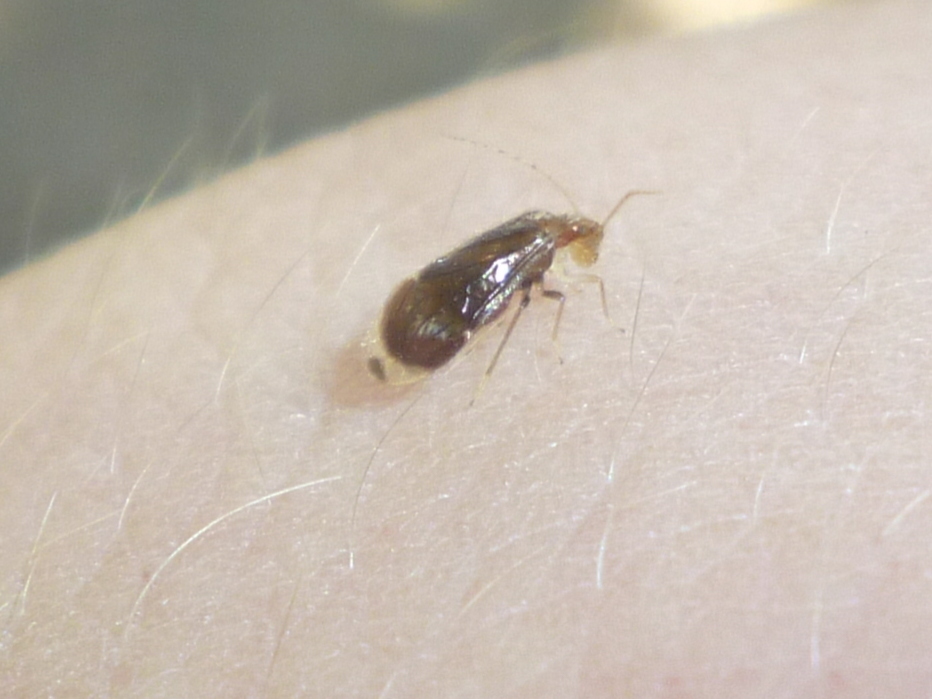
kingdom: Animalia
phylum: Arthropoda
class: Insecta
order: Psocodea
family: Amphipsocidae
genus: Polypsocus
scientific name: Polypsocus corruptus
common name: Corrupt barklouse
